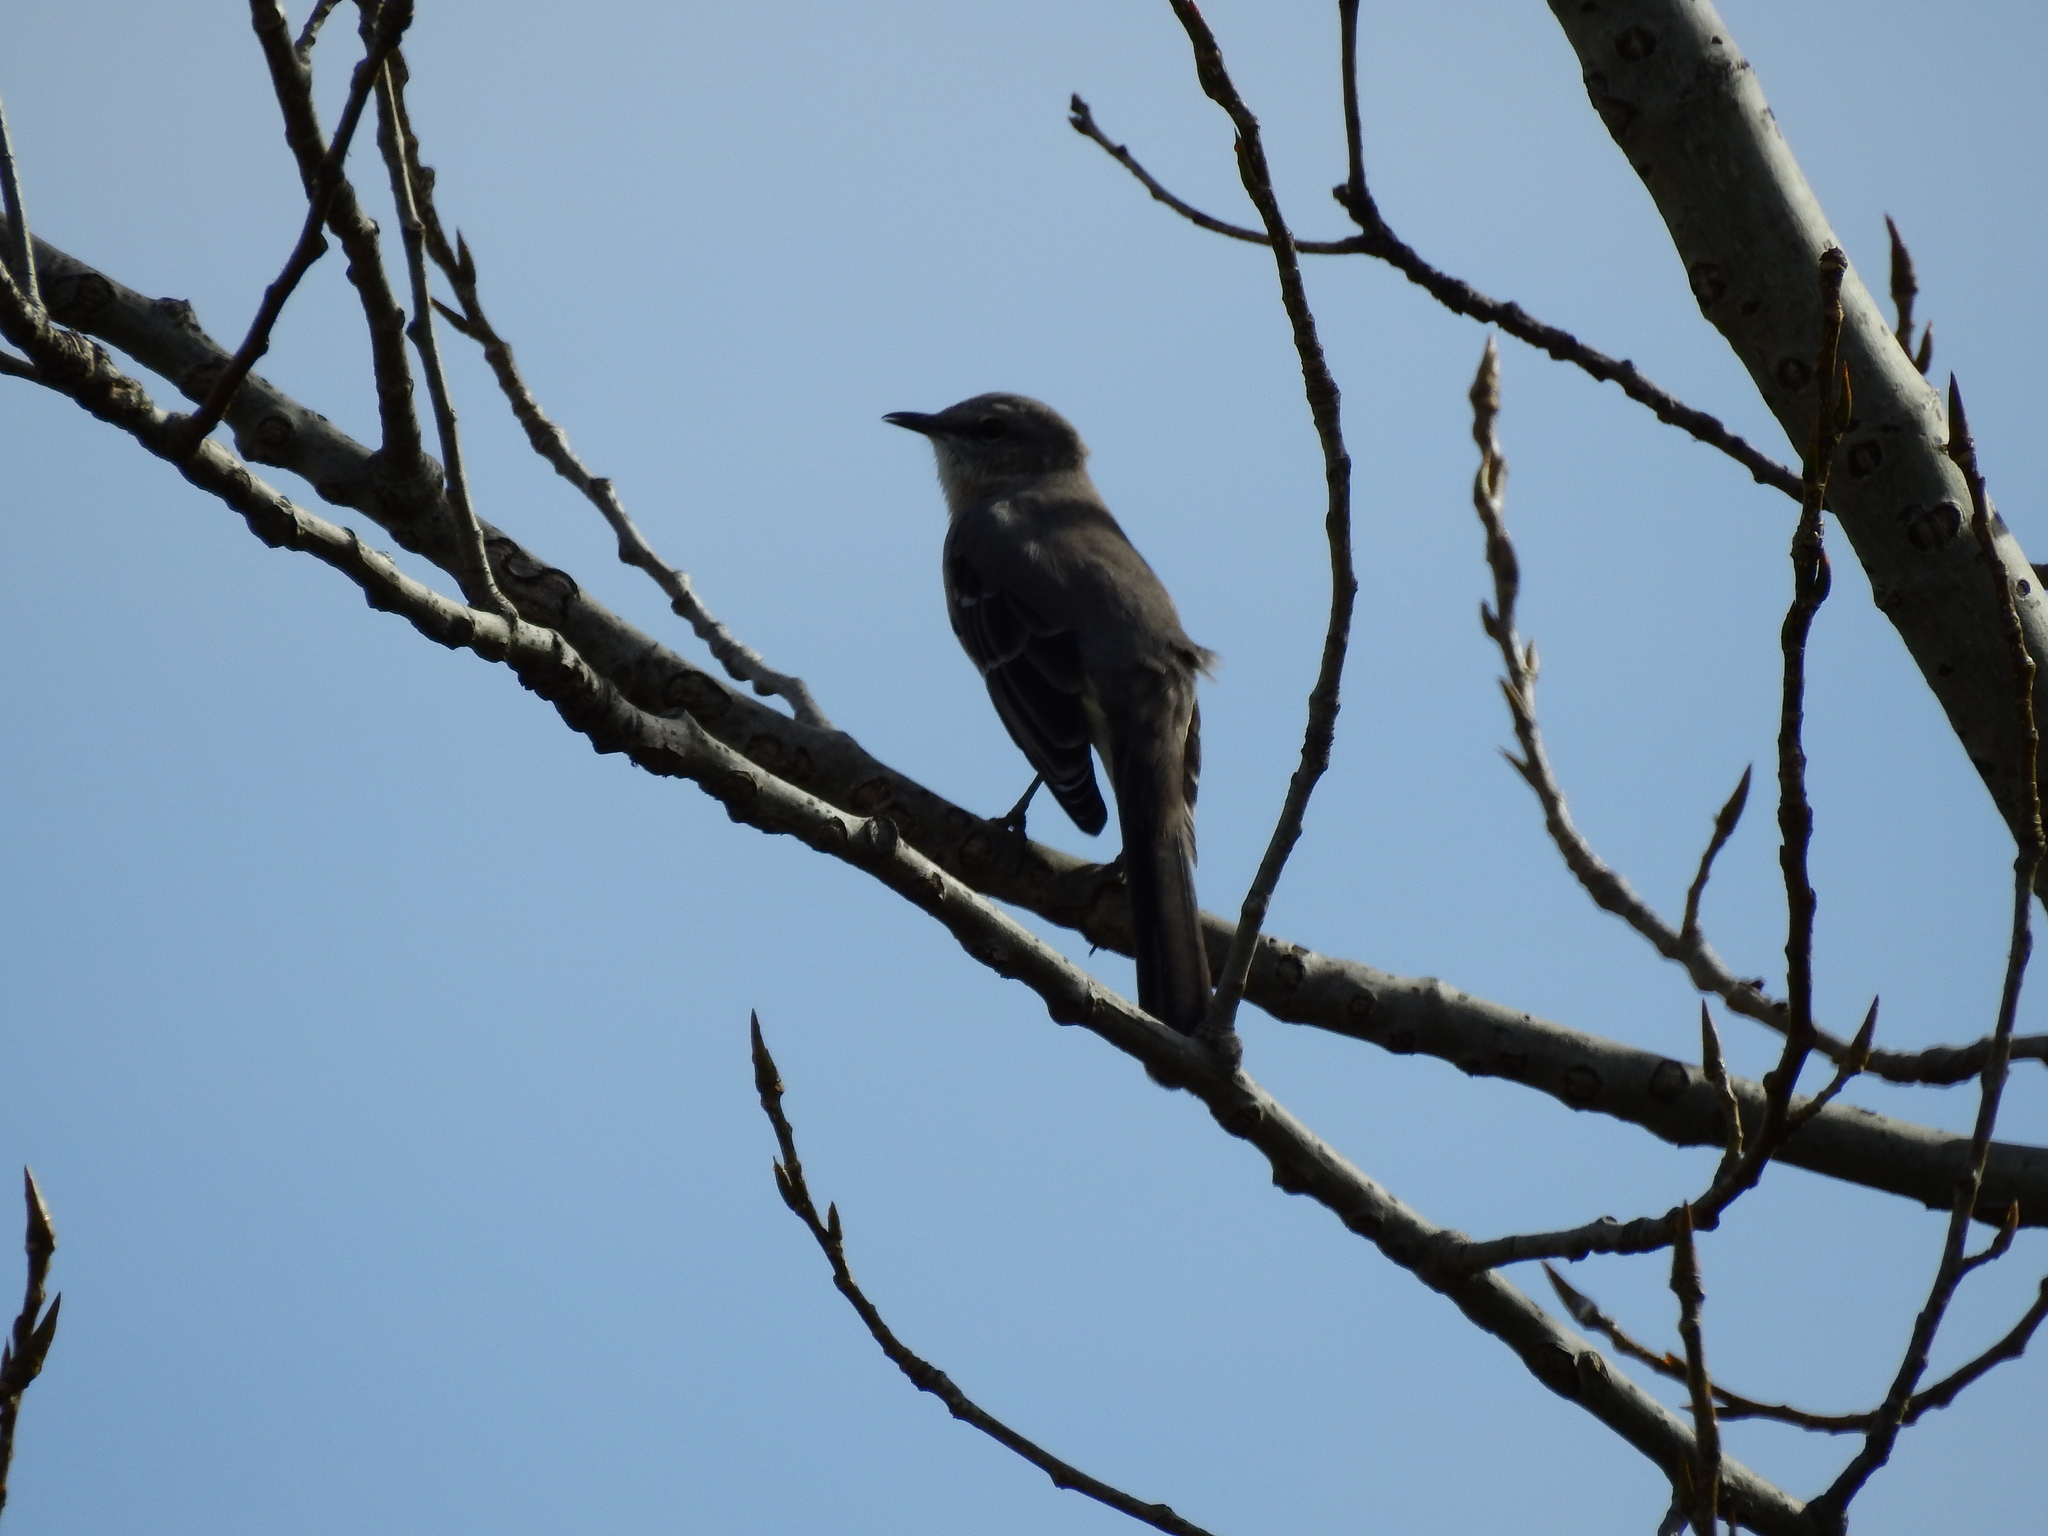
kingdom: Animalia
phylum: Chordata
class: Aves
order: Passeriformes
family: Mimidae
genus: Mimus
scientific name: Mimus polyglottos
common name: Northern mockingbird
